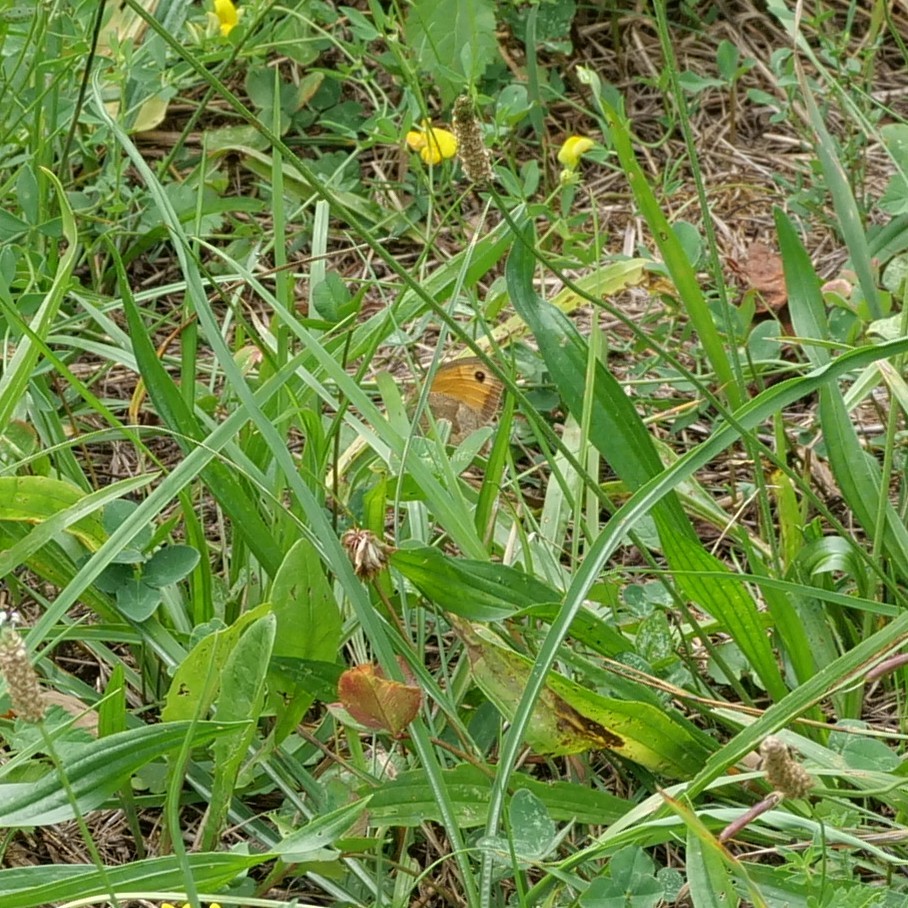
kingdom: Animalia
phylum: Arthropoda
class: Insecta
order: Lepidoptera
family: Nymphalidae
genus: Maniola
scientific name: Maniola jurtina
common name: Meadow brown
